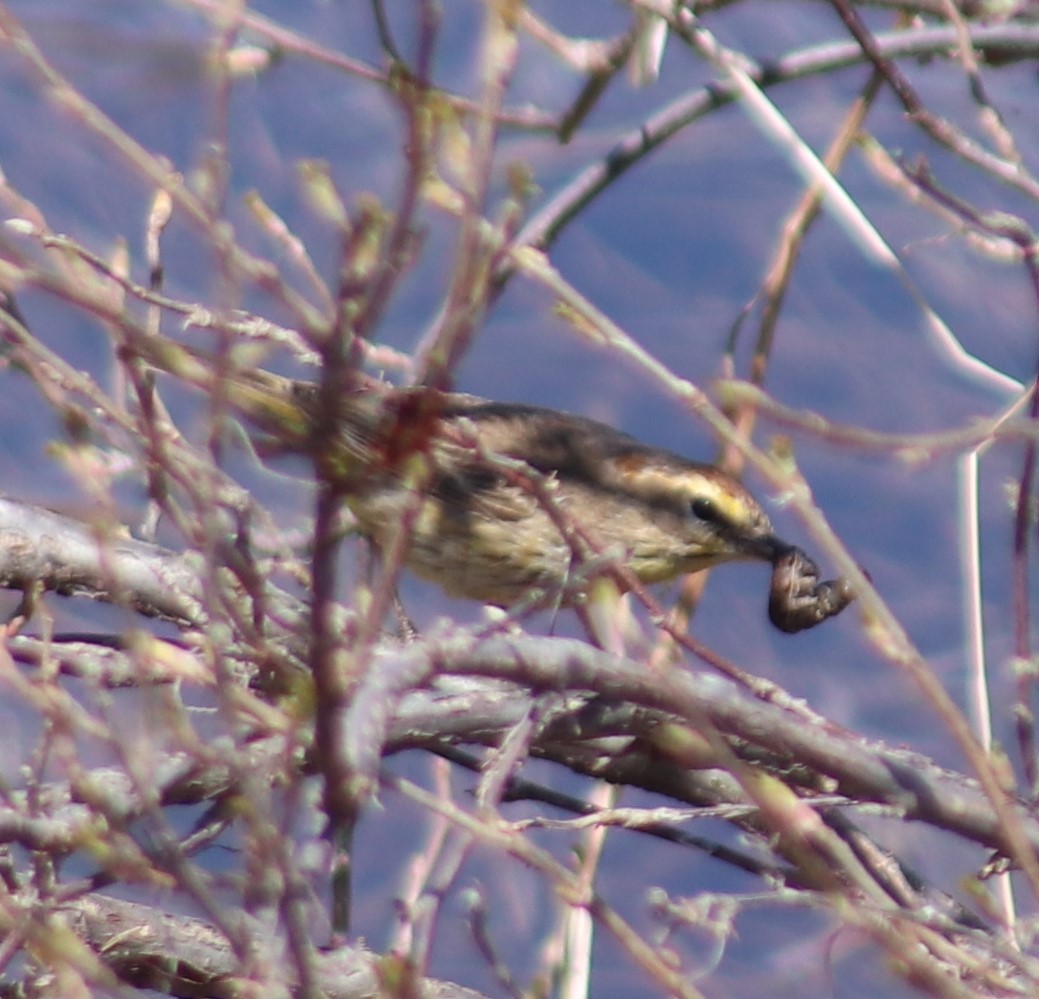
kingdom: Animalia
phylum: Chordata
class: Aves
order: Passeriformes
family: Parulidae
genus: Setophaga
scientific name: Setophaga palmarum
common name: Palm warbler
